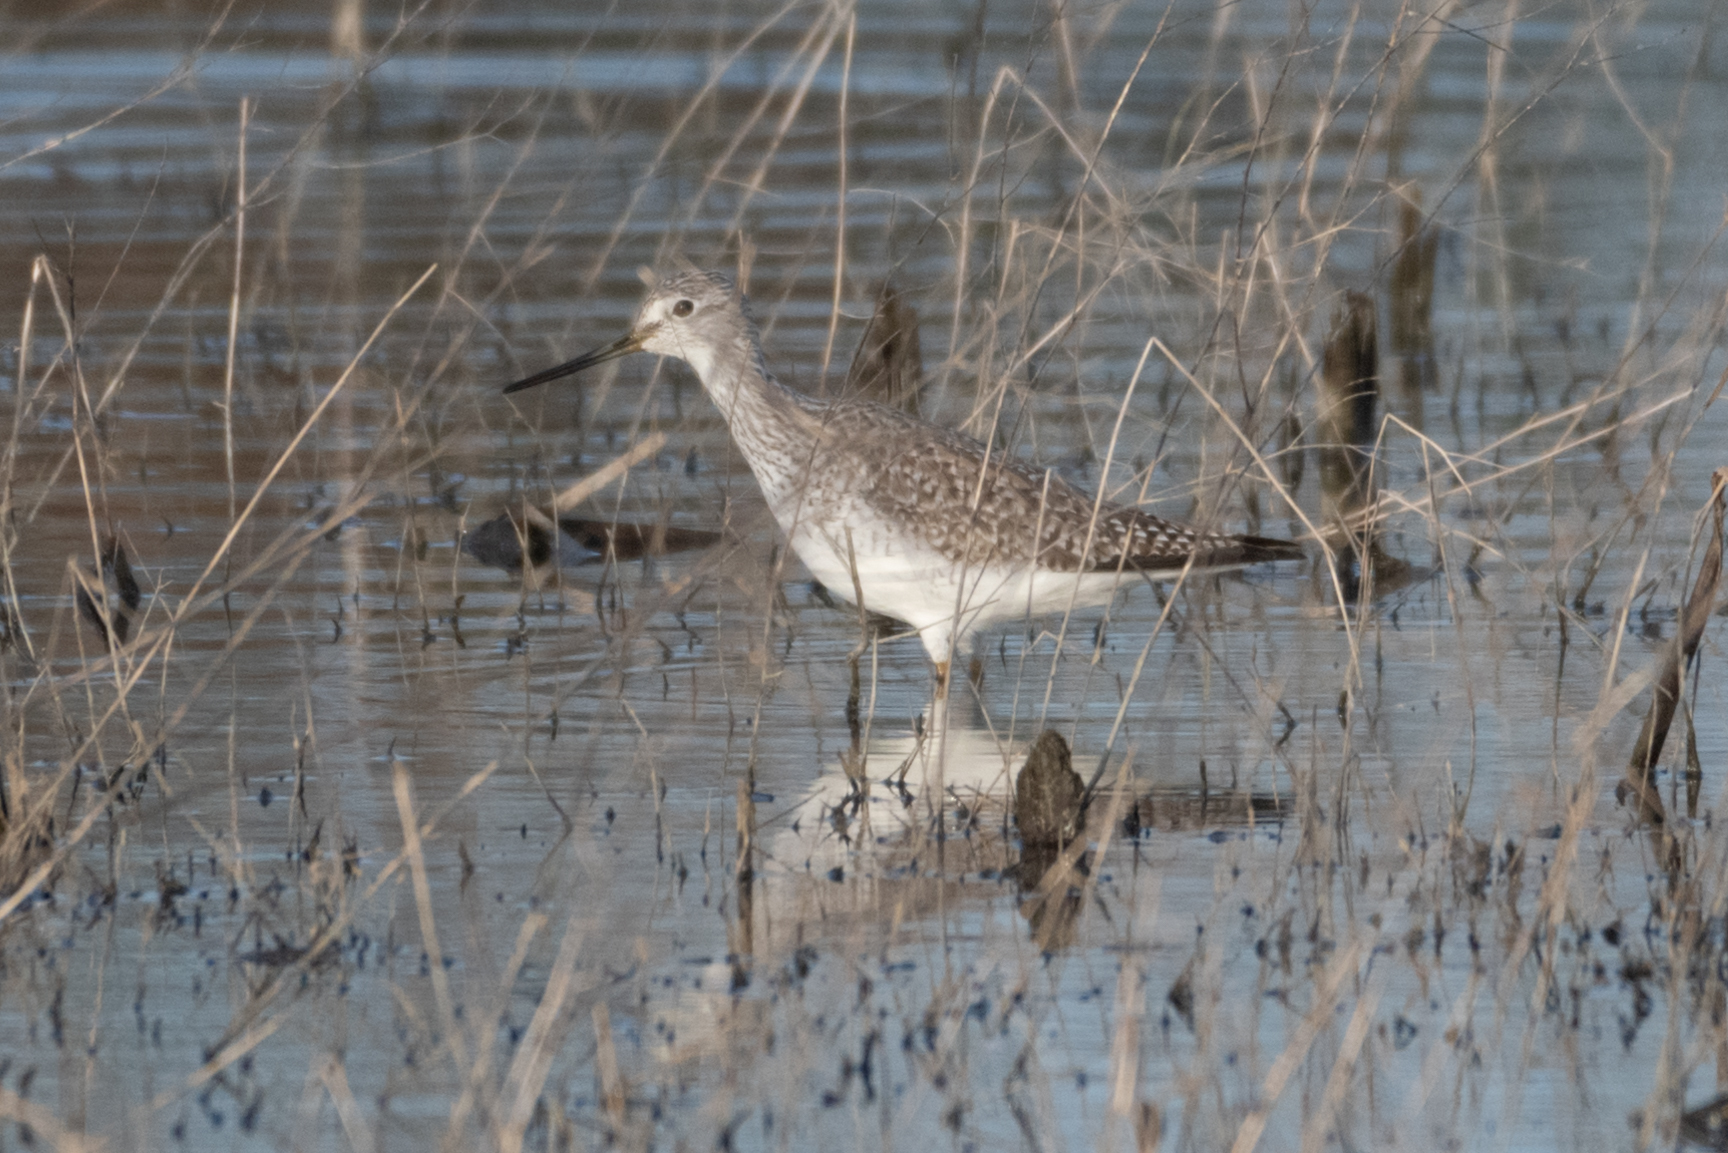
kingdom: Animalia
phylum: Chordata
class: Aves
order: Charadriiformes
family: Scolopacidae
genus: Tringa
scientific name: Tringa melanoleuca
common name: Greater yellowlegs
